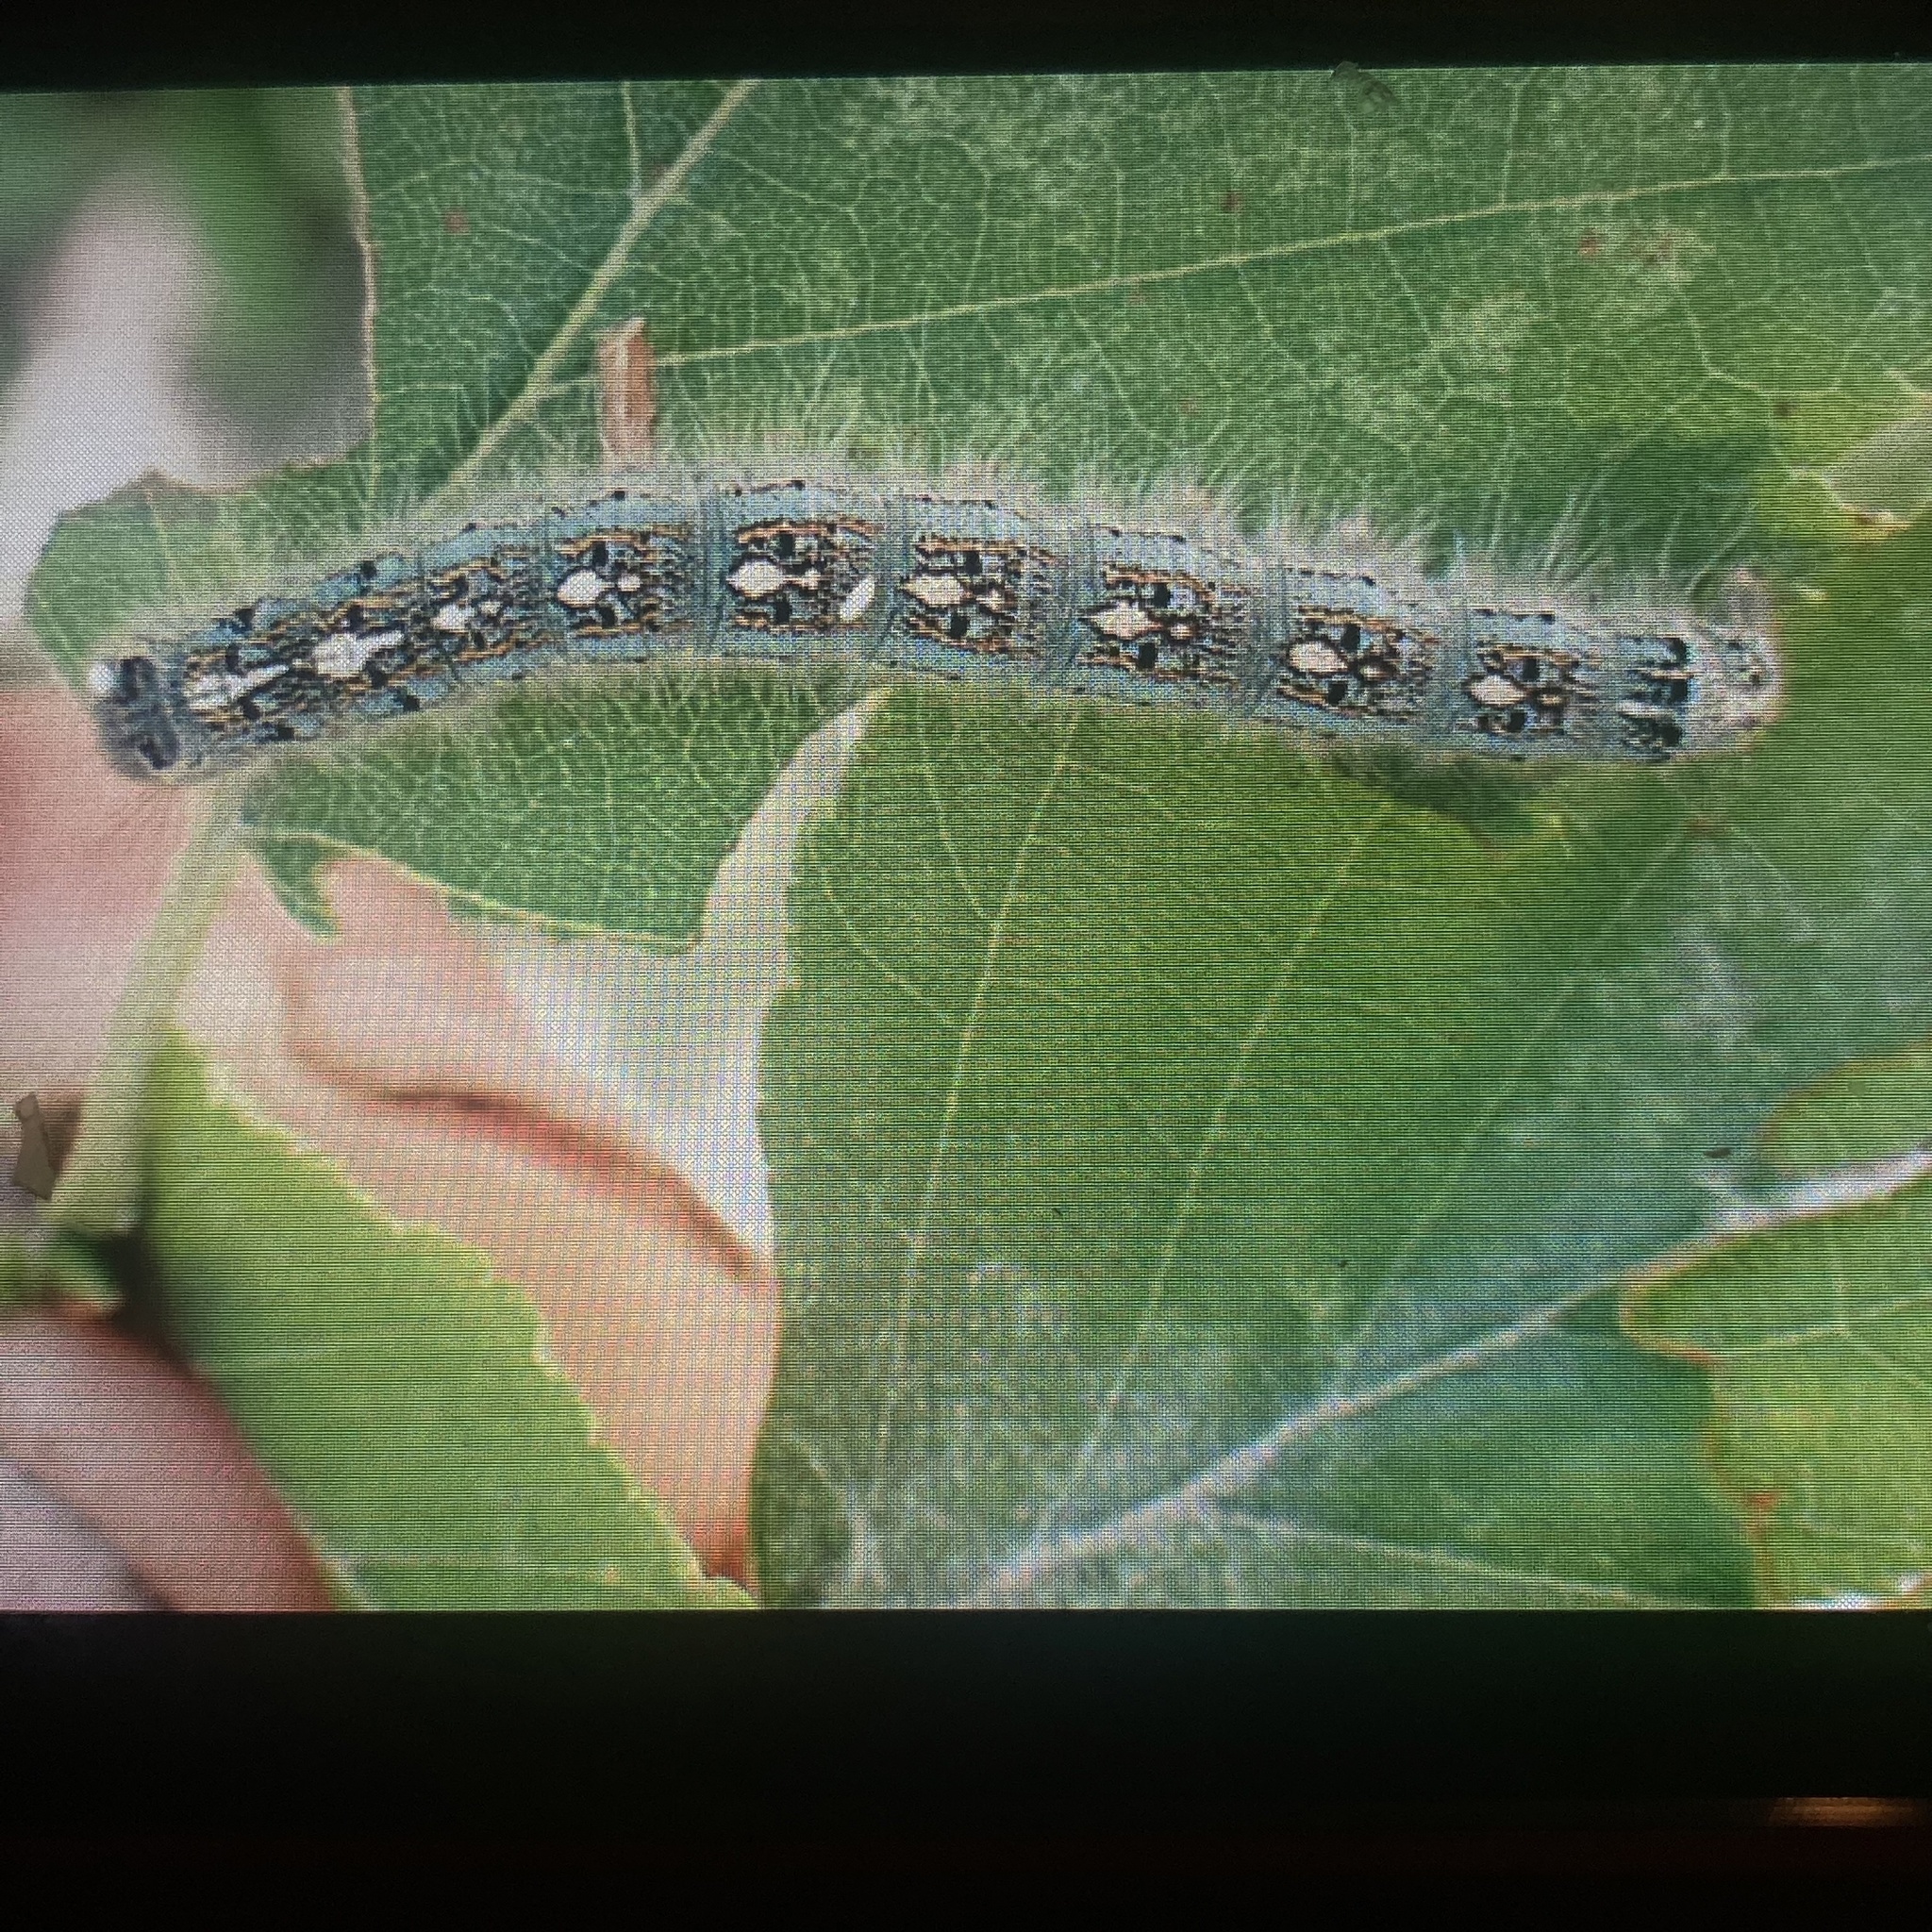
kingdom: Animalia
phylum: Arthropoda
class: Insecta
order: Lepidoptera
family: Lasiocampidae
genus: Malacosoma
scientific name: Malacosoma disstria
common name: Forest tent caterpillar
